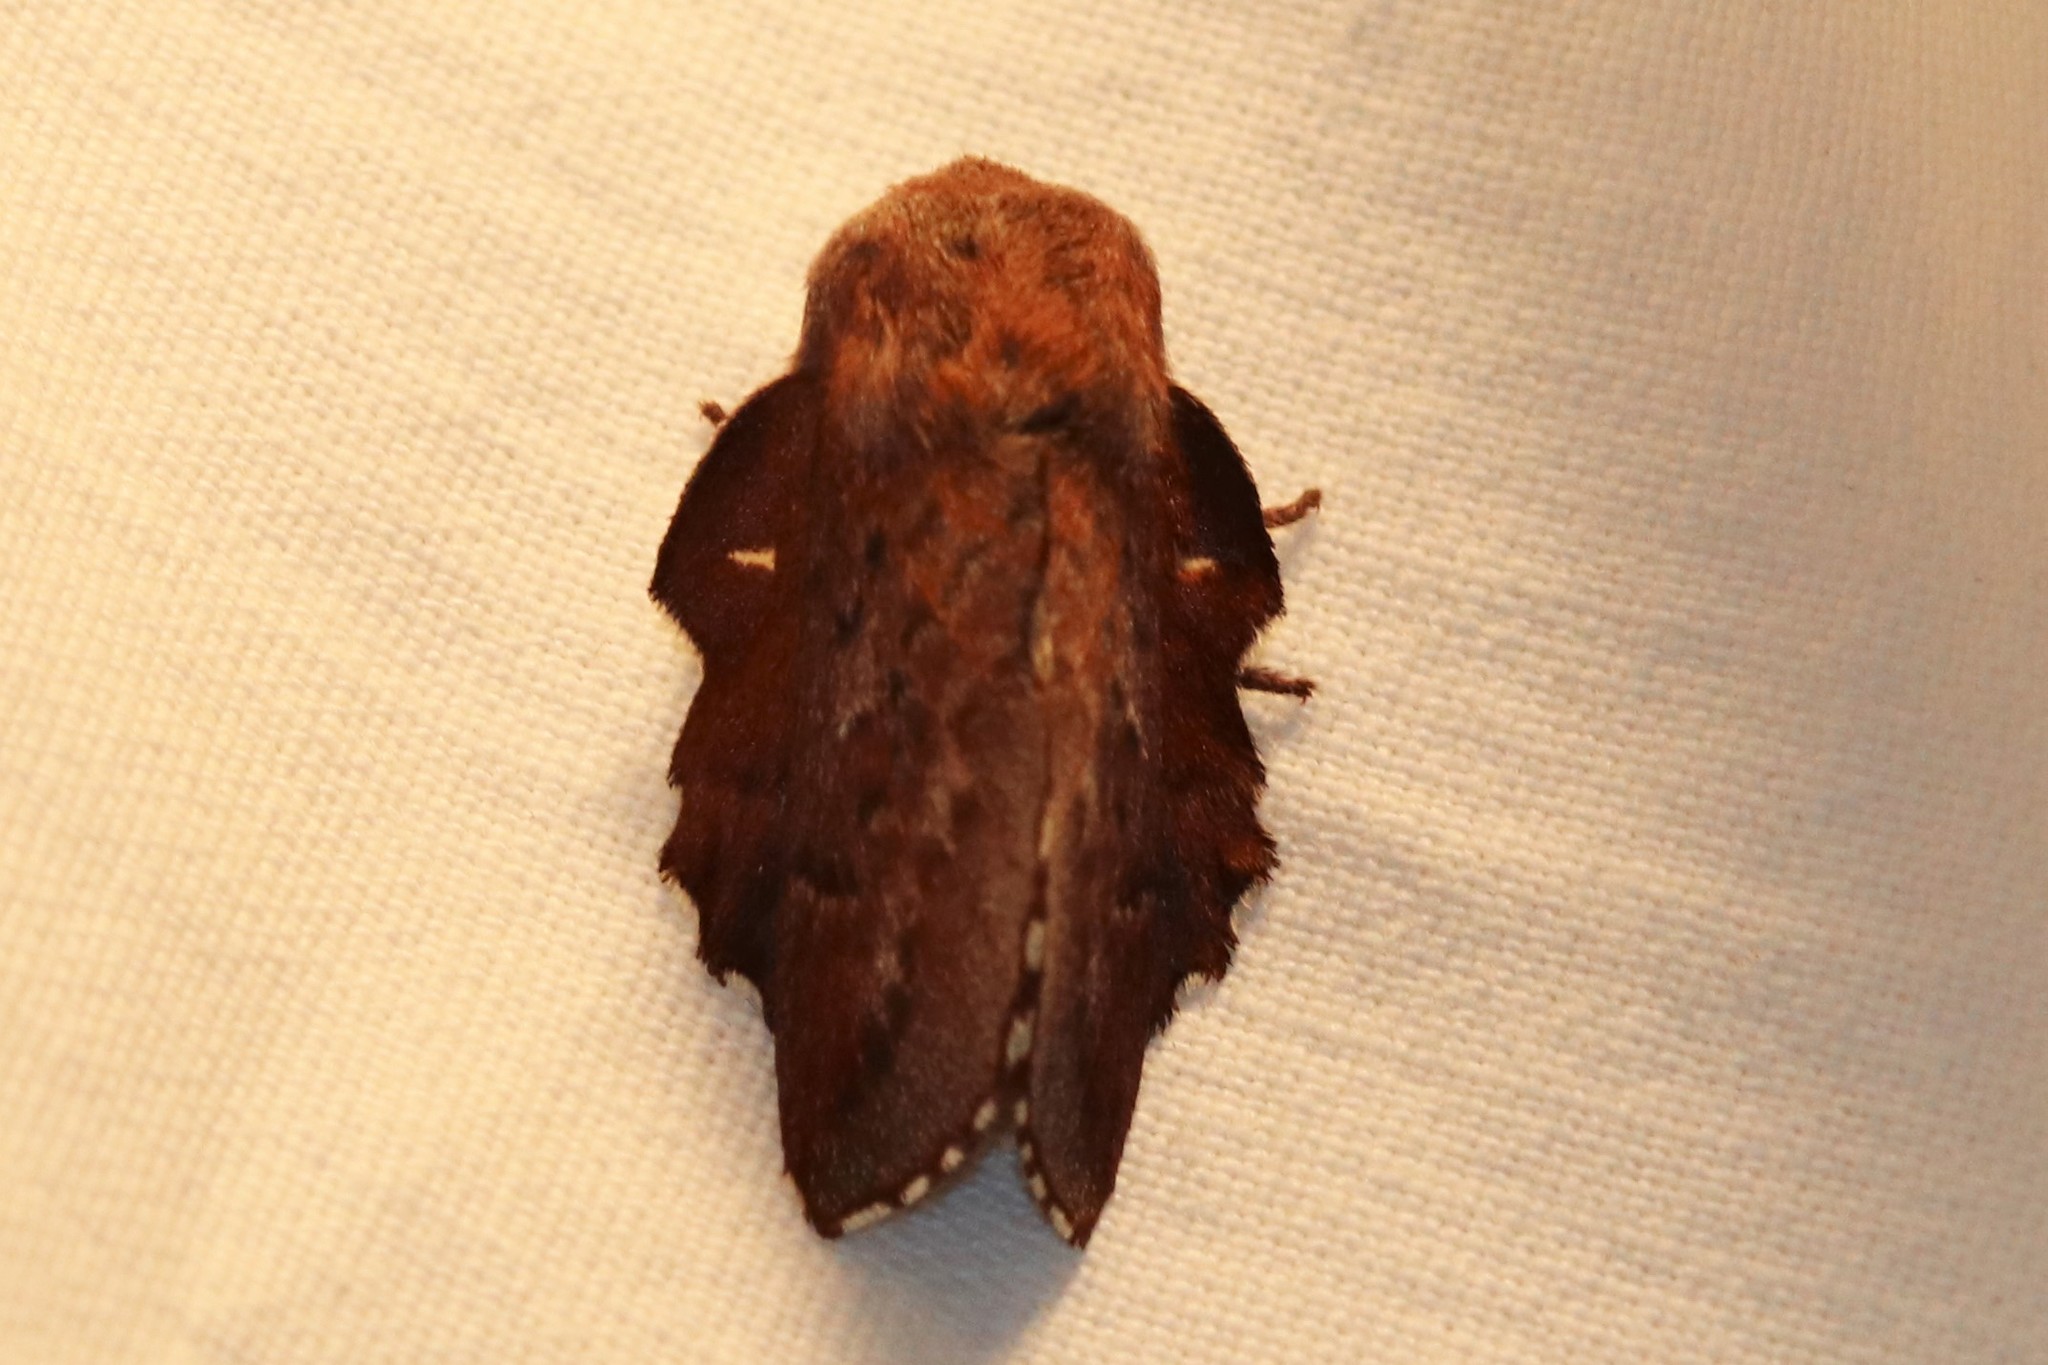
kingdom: Animalia
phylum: Arthropoda
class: Insecta
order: Lepidoptera
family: Lasiocampidae
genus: Phyllodesma
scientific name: Phyllodesma americana
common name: American lappet moth
